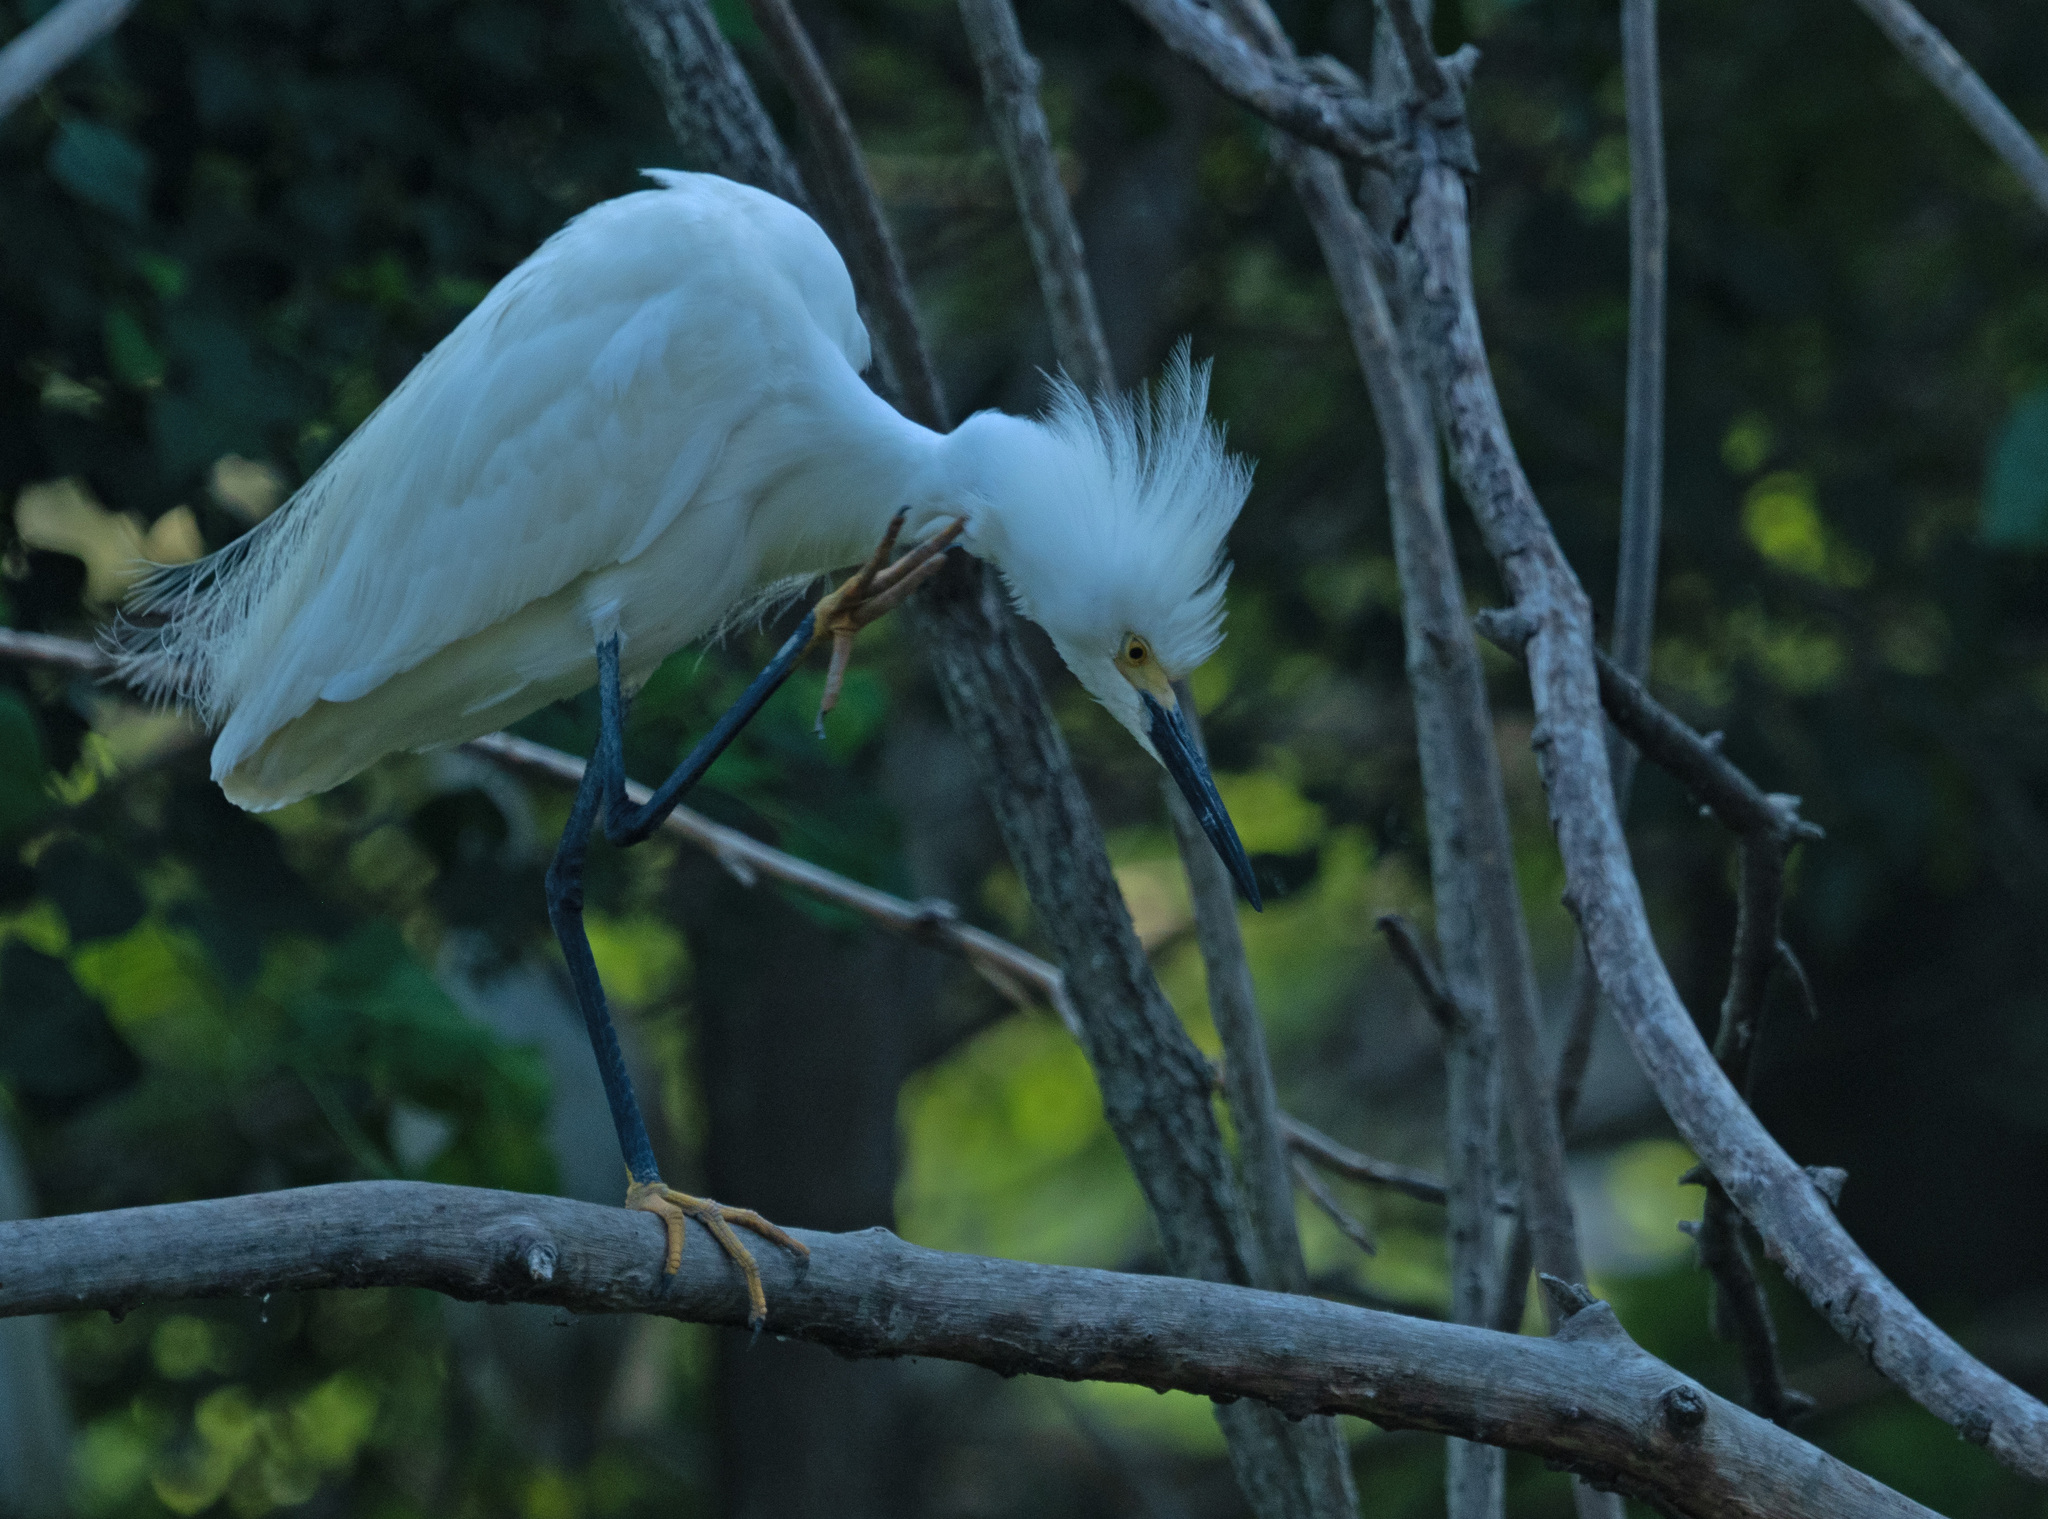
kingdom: Animalia
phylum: Chordata
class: Aves
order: Pelecaniformes
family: Ardeidae
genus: Egretta
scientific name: Egretta thula
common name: Snowy egret
